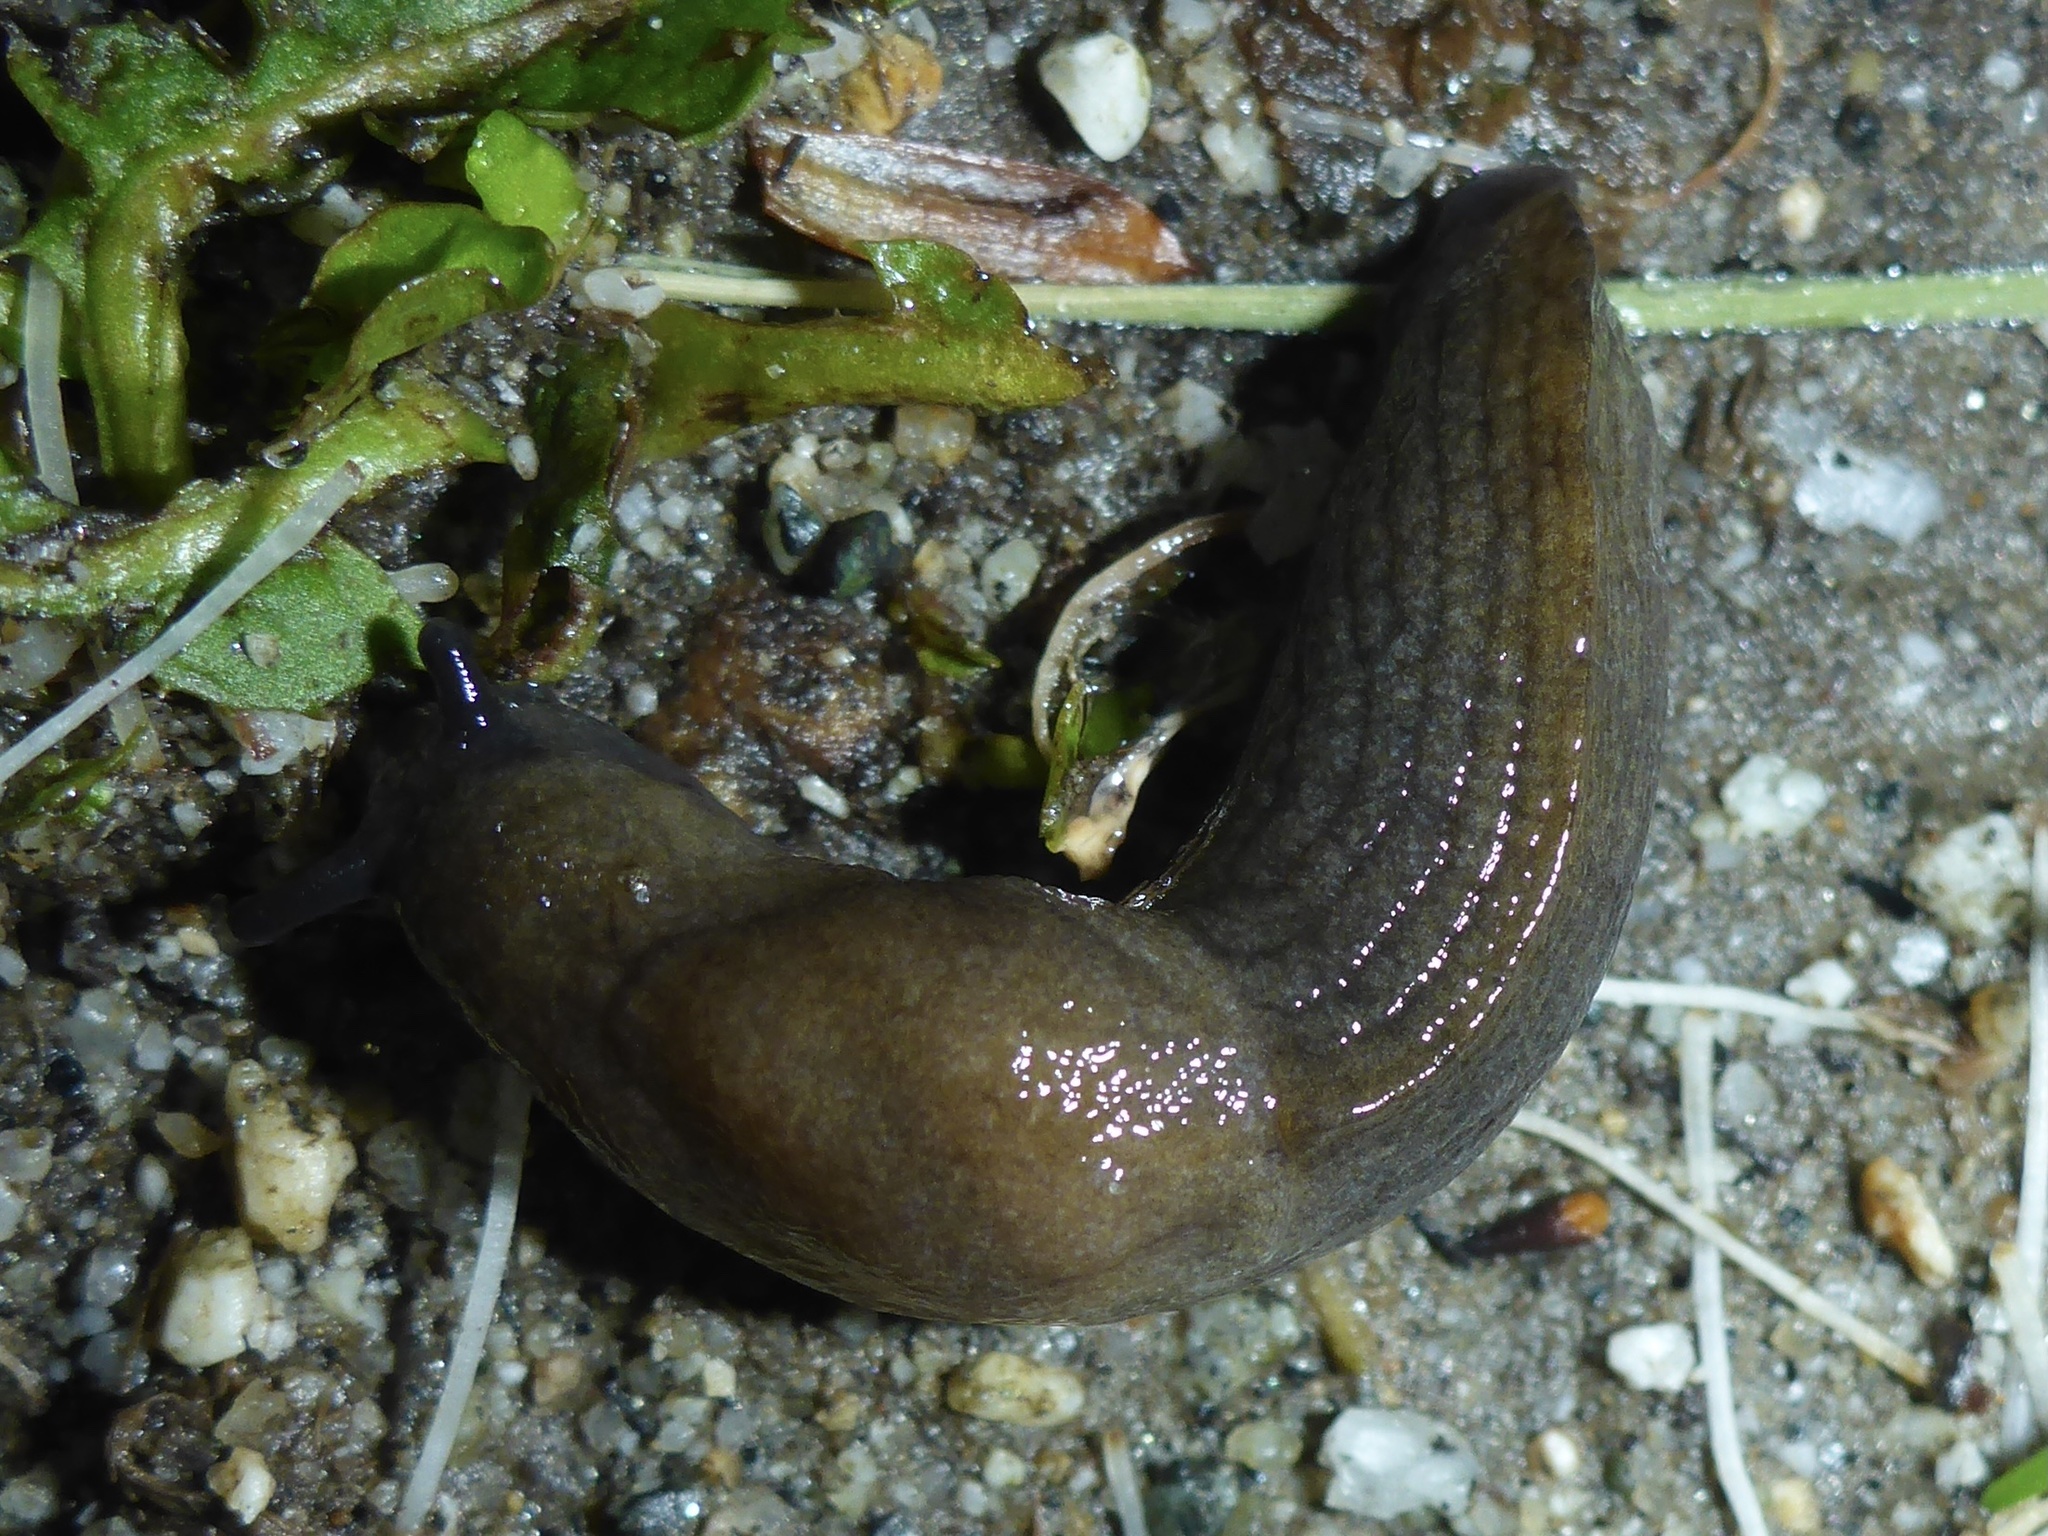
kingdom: Animalia
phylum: Mollusca
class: Gastropoda
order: Stylommatophora
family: Milacidae
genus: Milax
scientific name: Milax gagates
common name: Greenhouse slug
